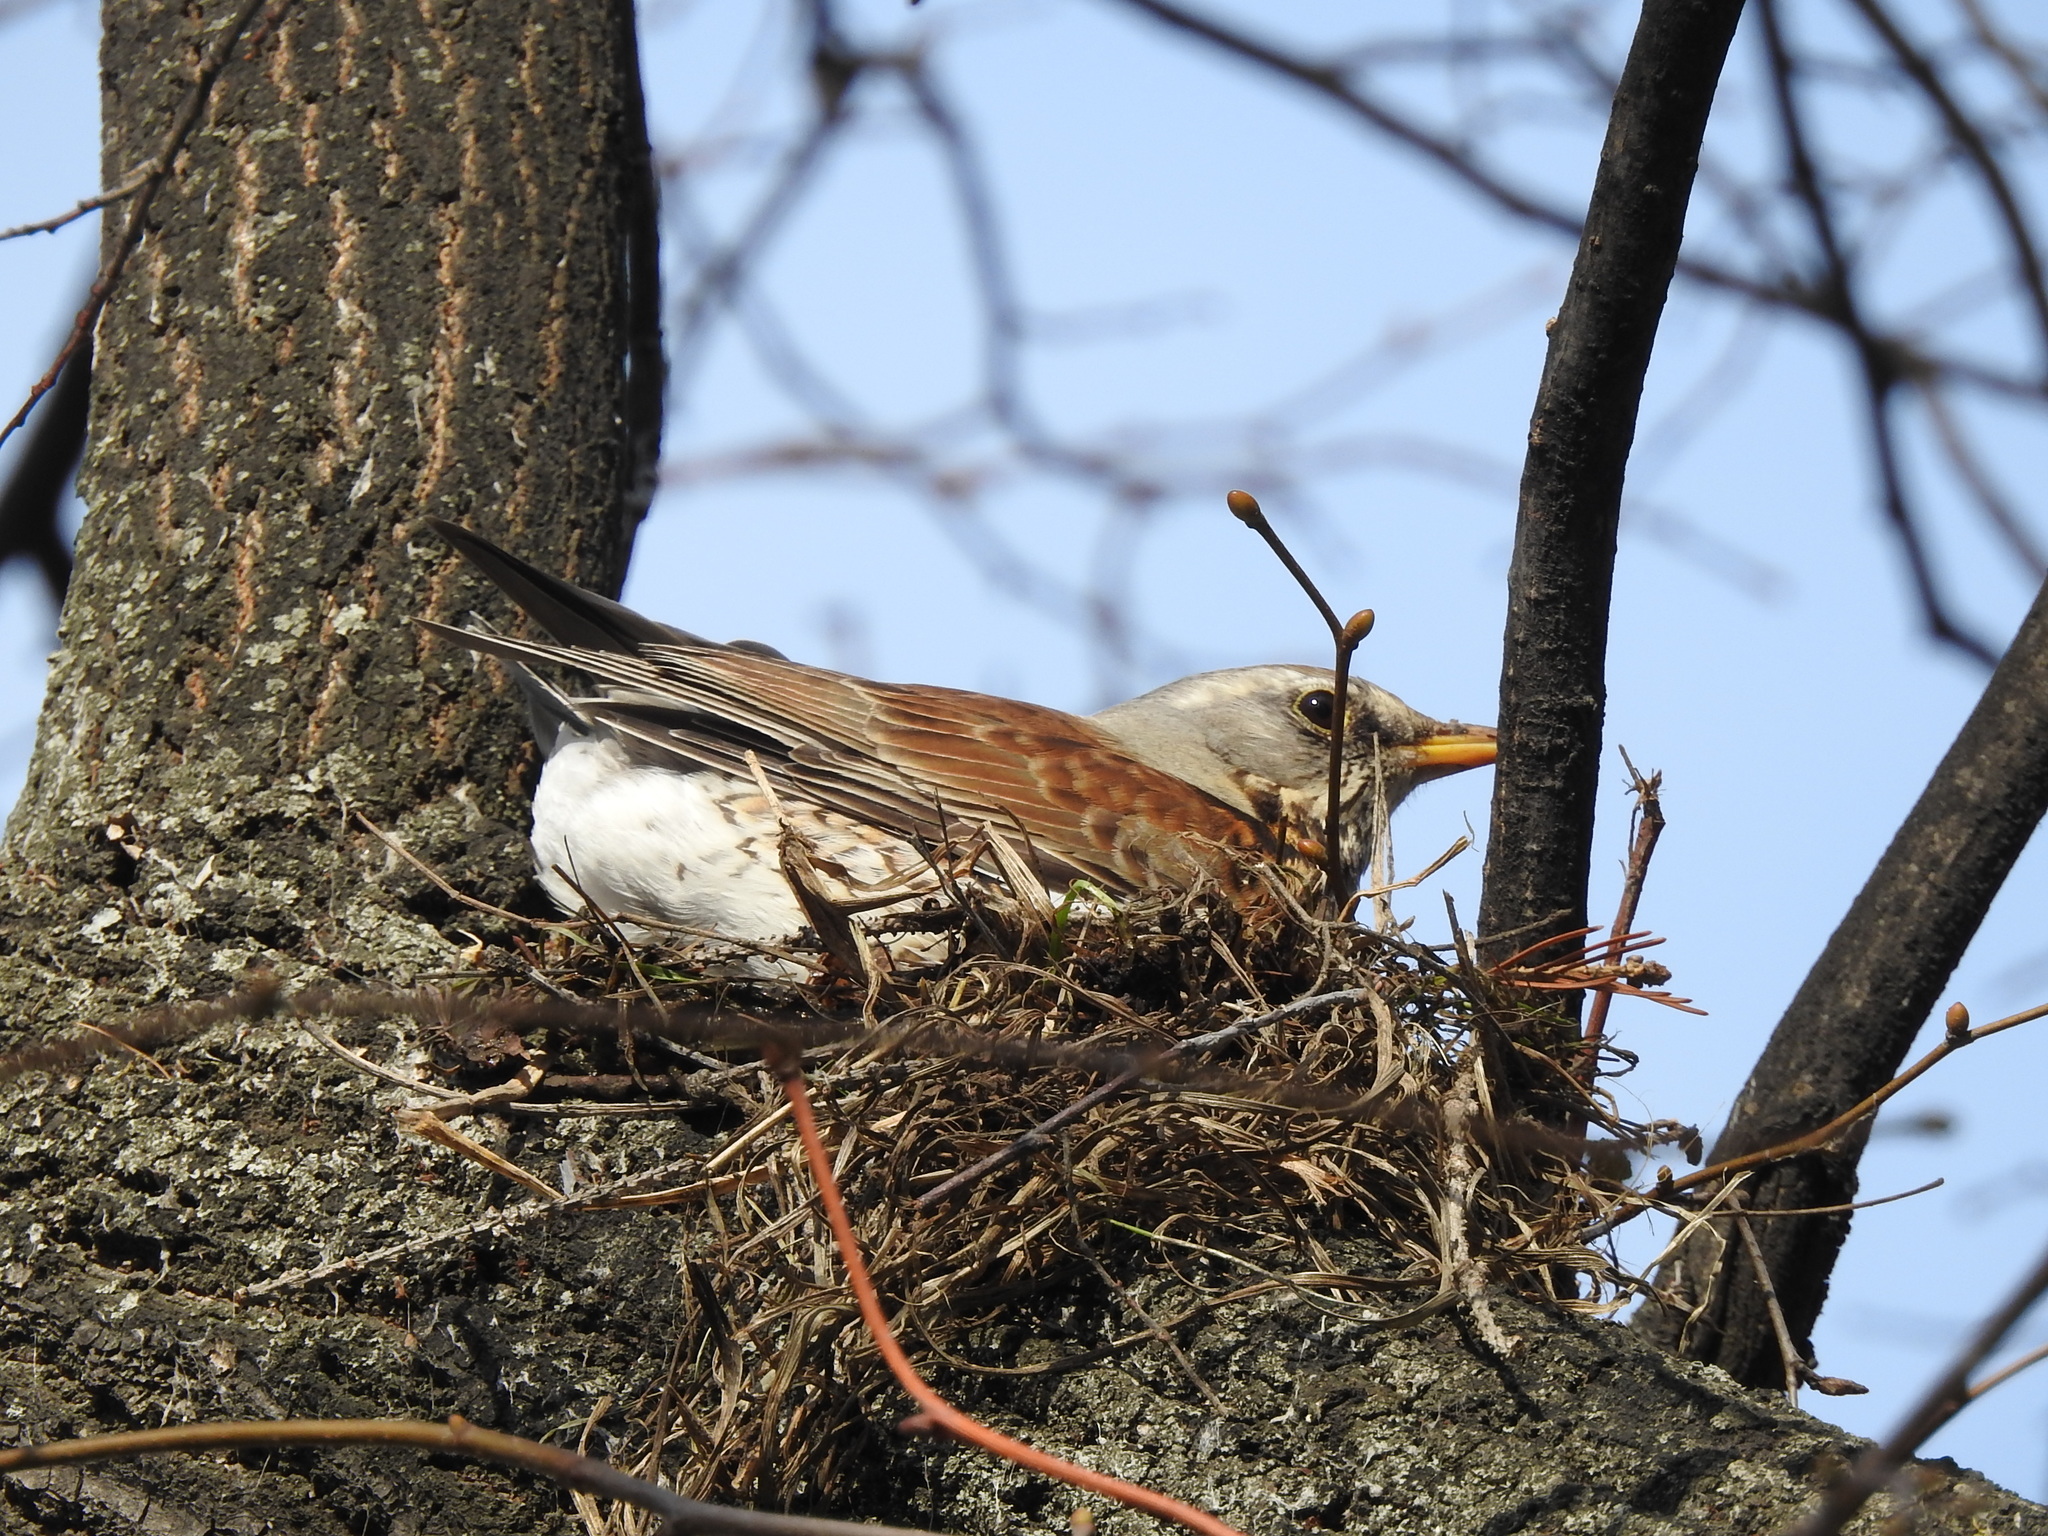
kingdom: Animalia
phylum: Chordata
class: Aves
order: Passeriformes
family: Turdidae
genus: Turdus
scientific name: Turdus pilaris
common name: Fieldfare
